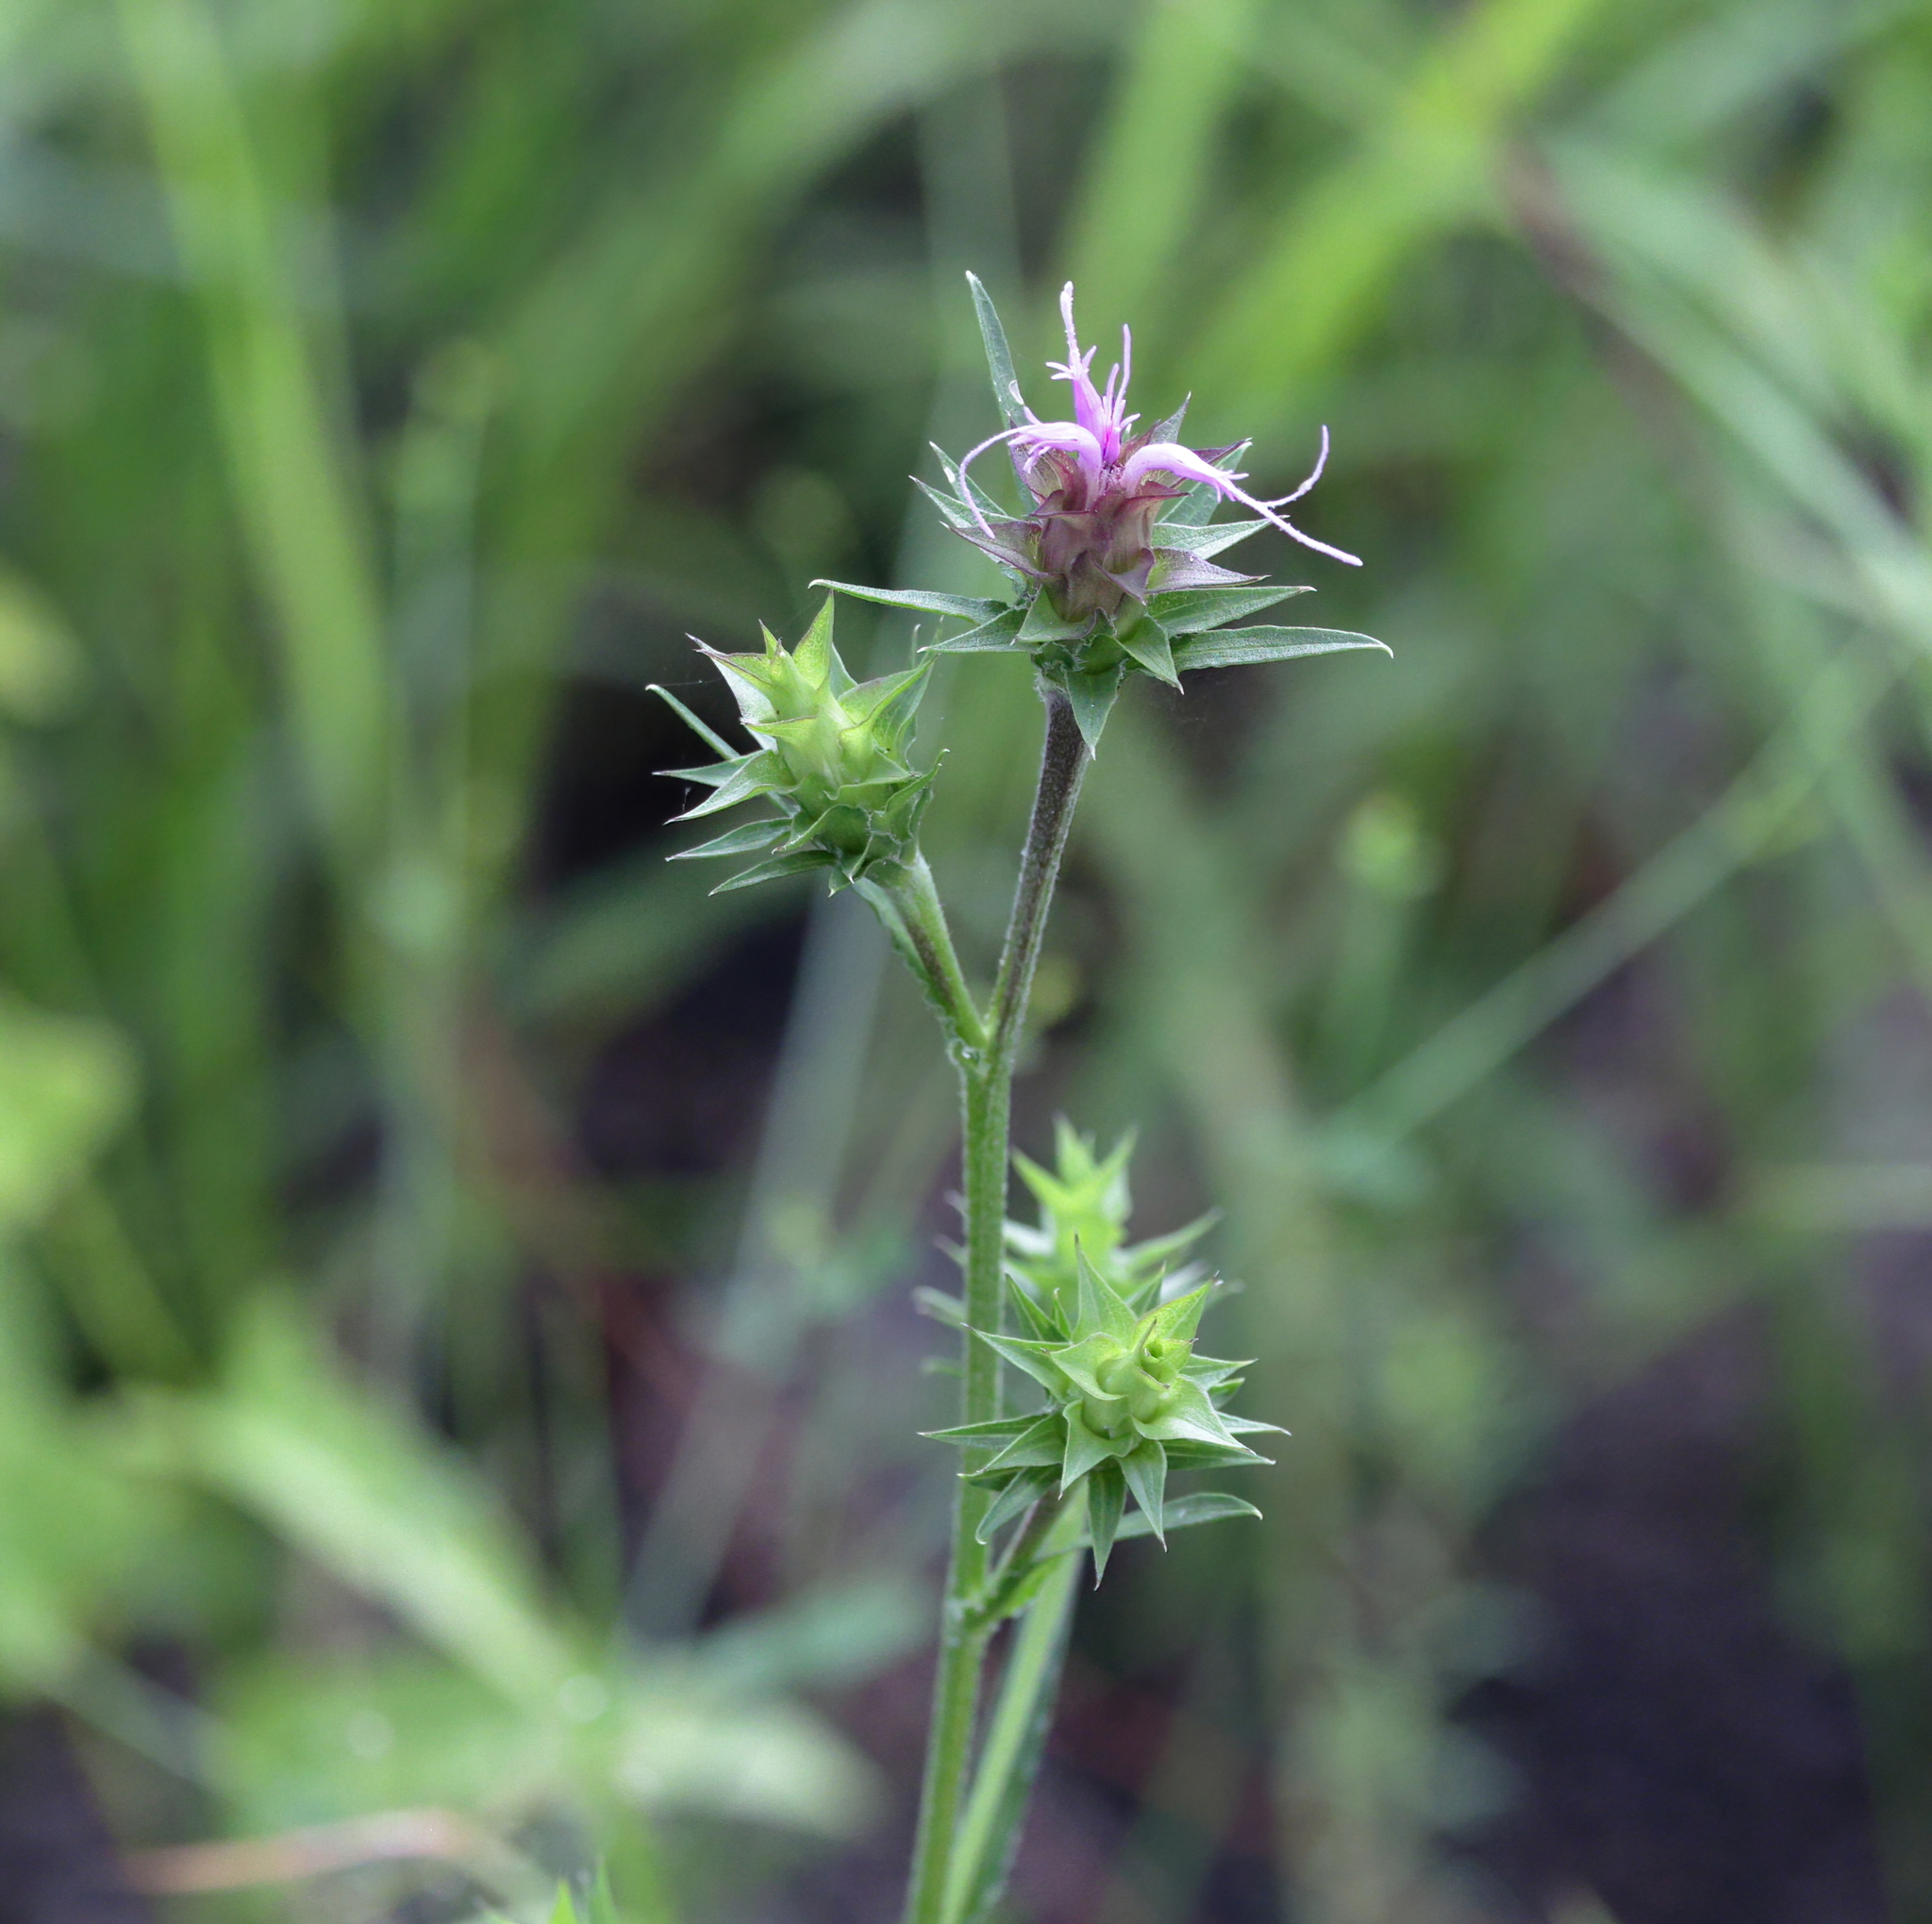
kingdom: Plantae
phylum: Tracheophyta
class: Magnoliopsida
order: Asterales
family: Asteraceae
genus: Liatris
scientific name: Liatris squarrosa
